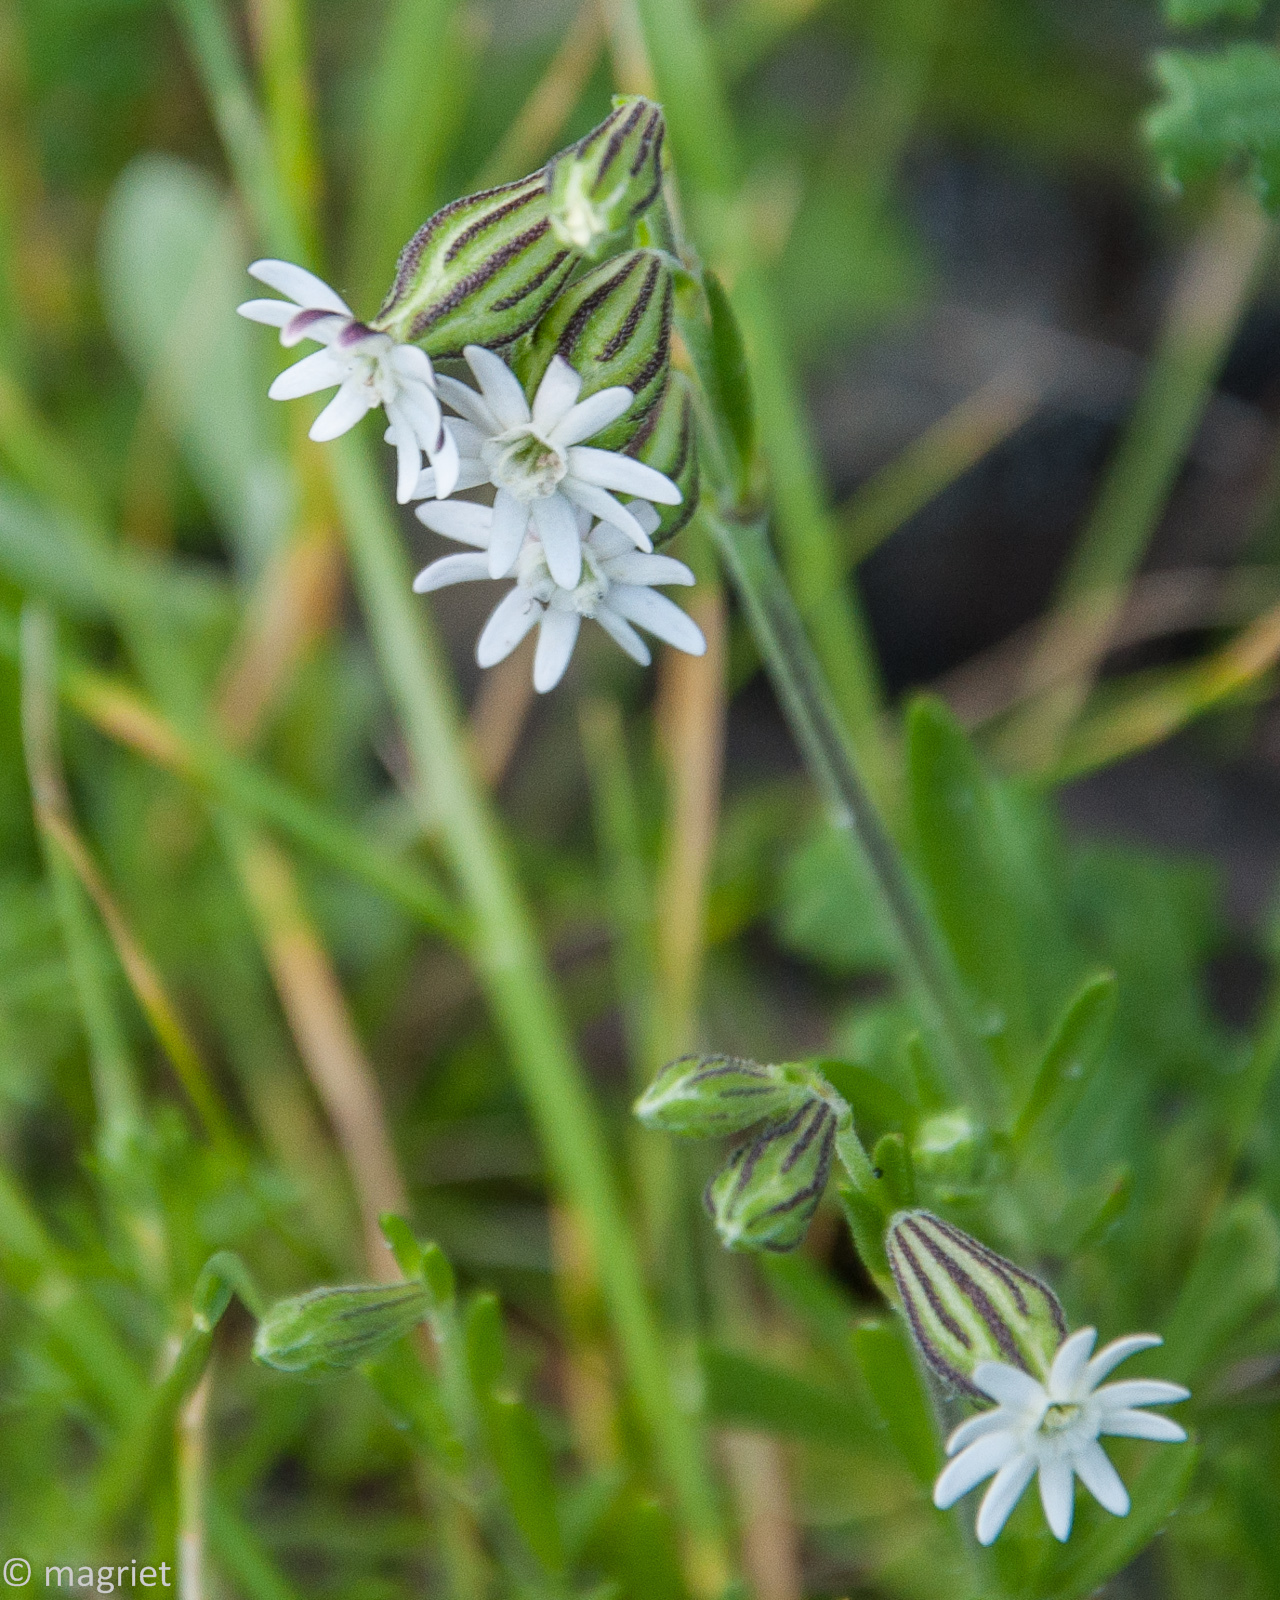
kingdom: Plantae
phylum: Tracheophyta
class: Magnoliopsida
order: Caryophyllales
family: Caryophyllaceae
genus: Silene
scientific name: Silene aethiopica
